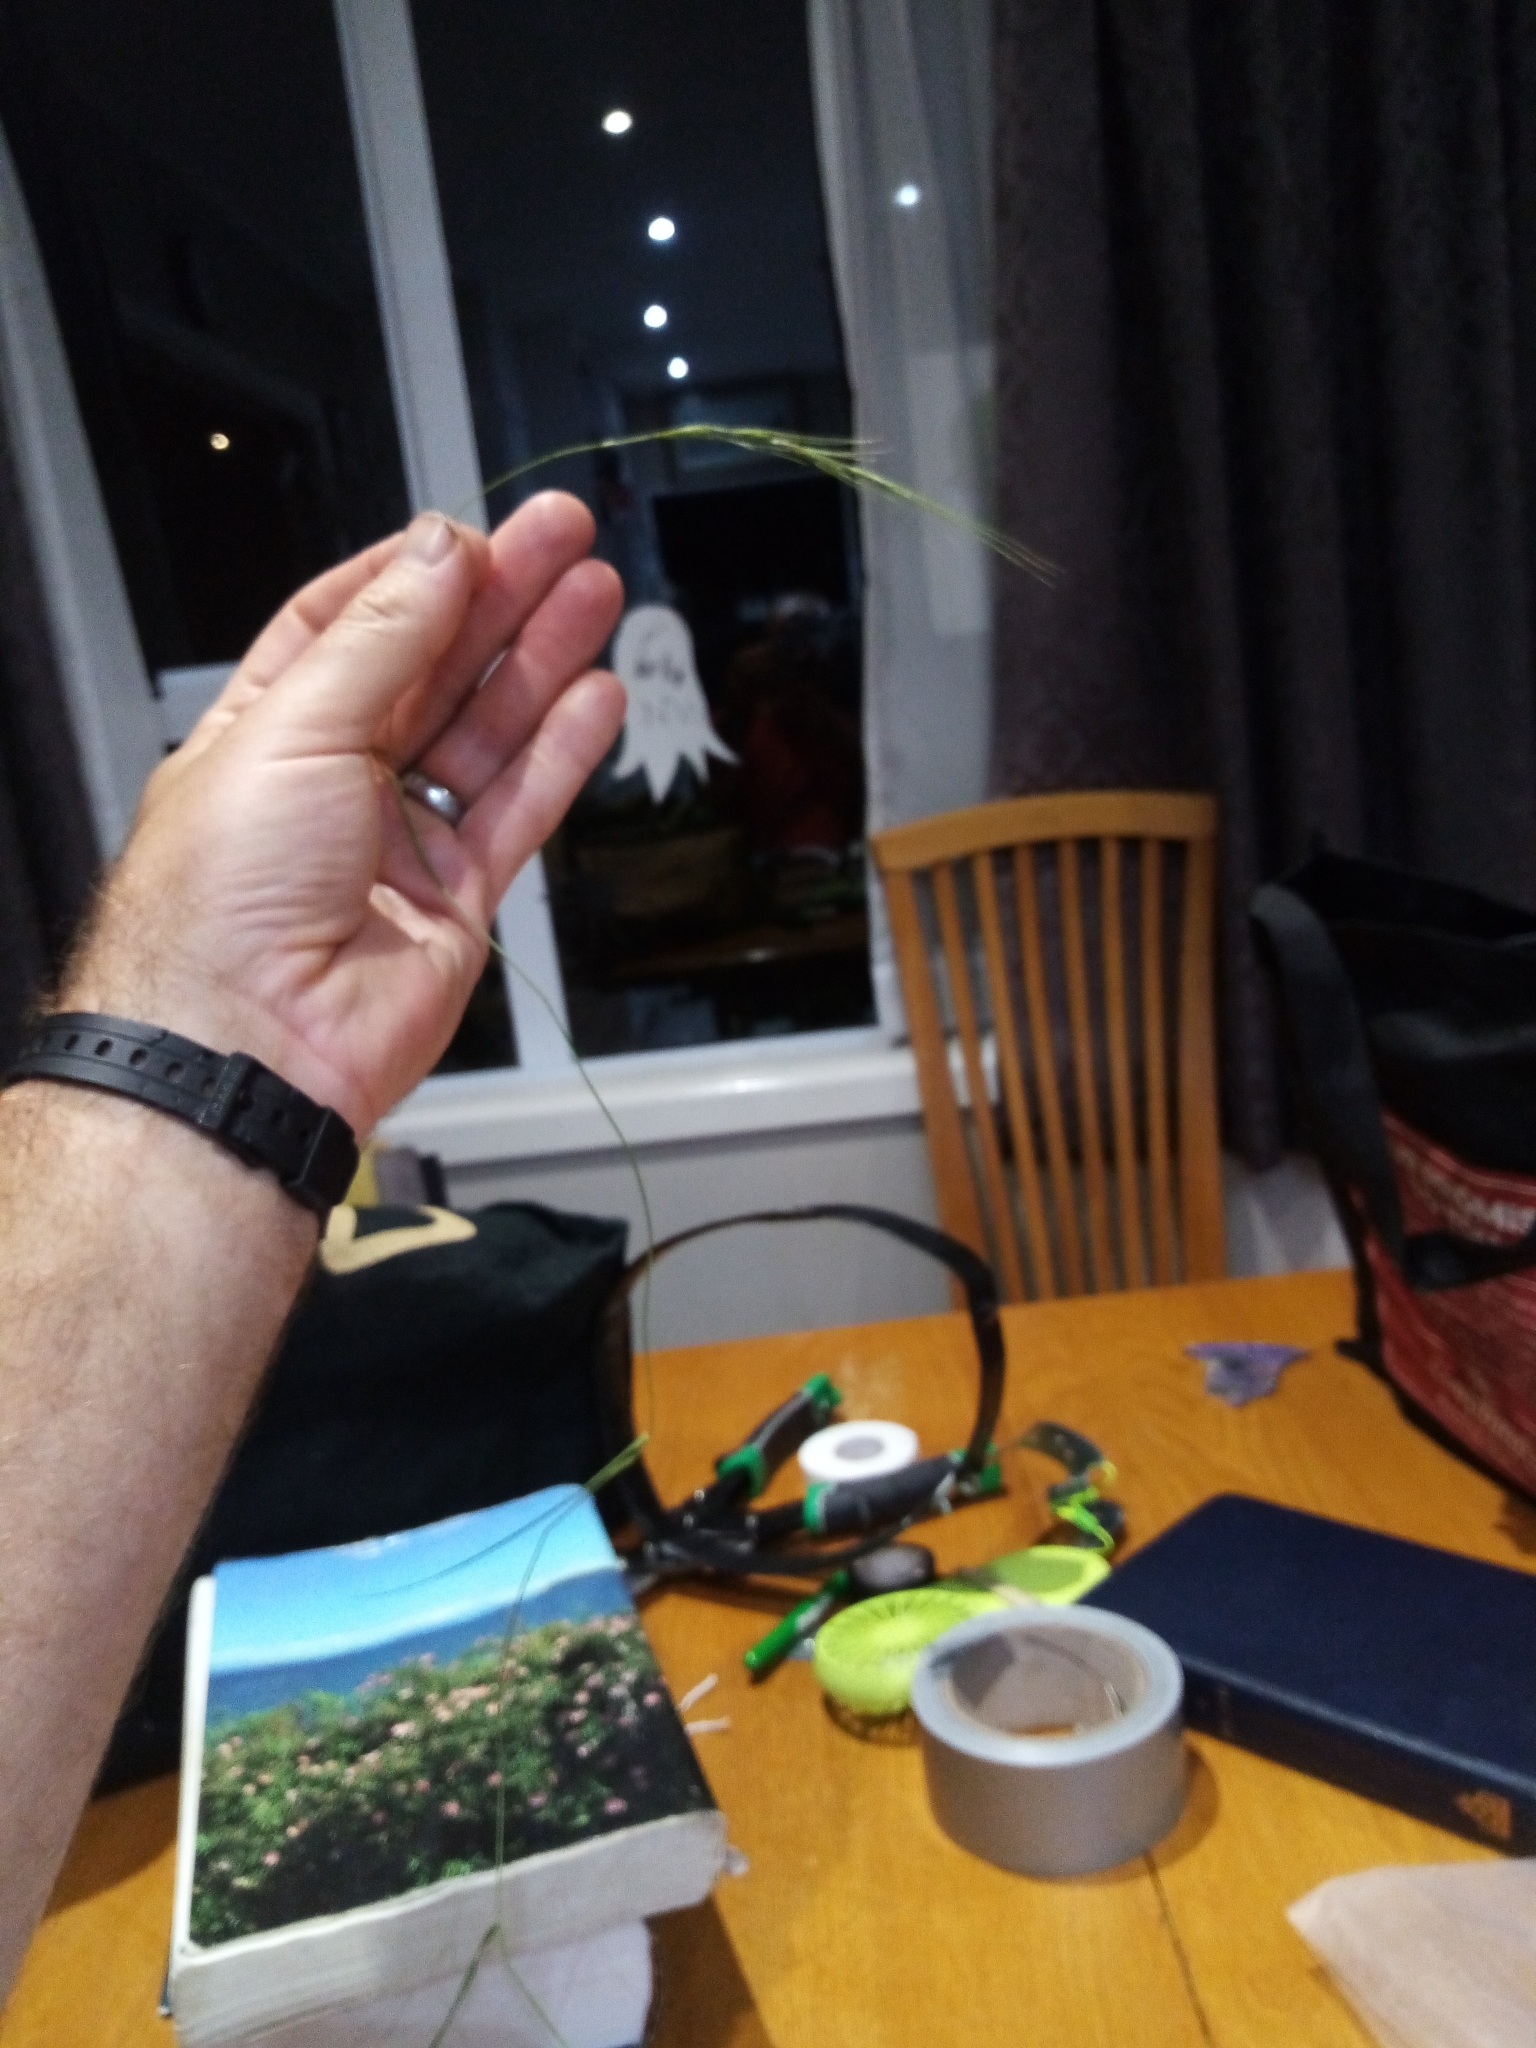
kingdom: Plantae
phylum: Tracheophyta
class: Liliopsida
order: Poales
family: Poaceae
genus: Anthosachne
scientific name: Anthosachne scabra
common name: Common wheatgrass
